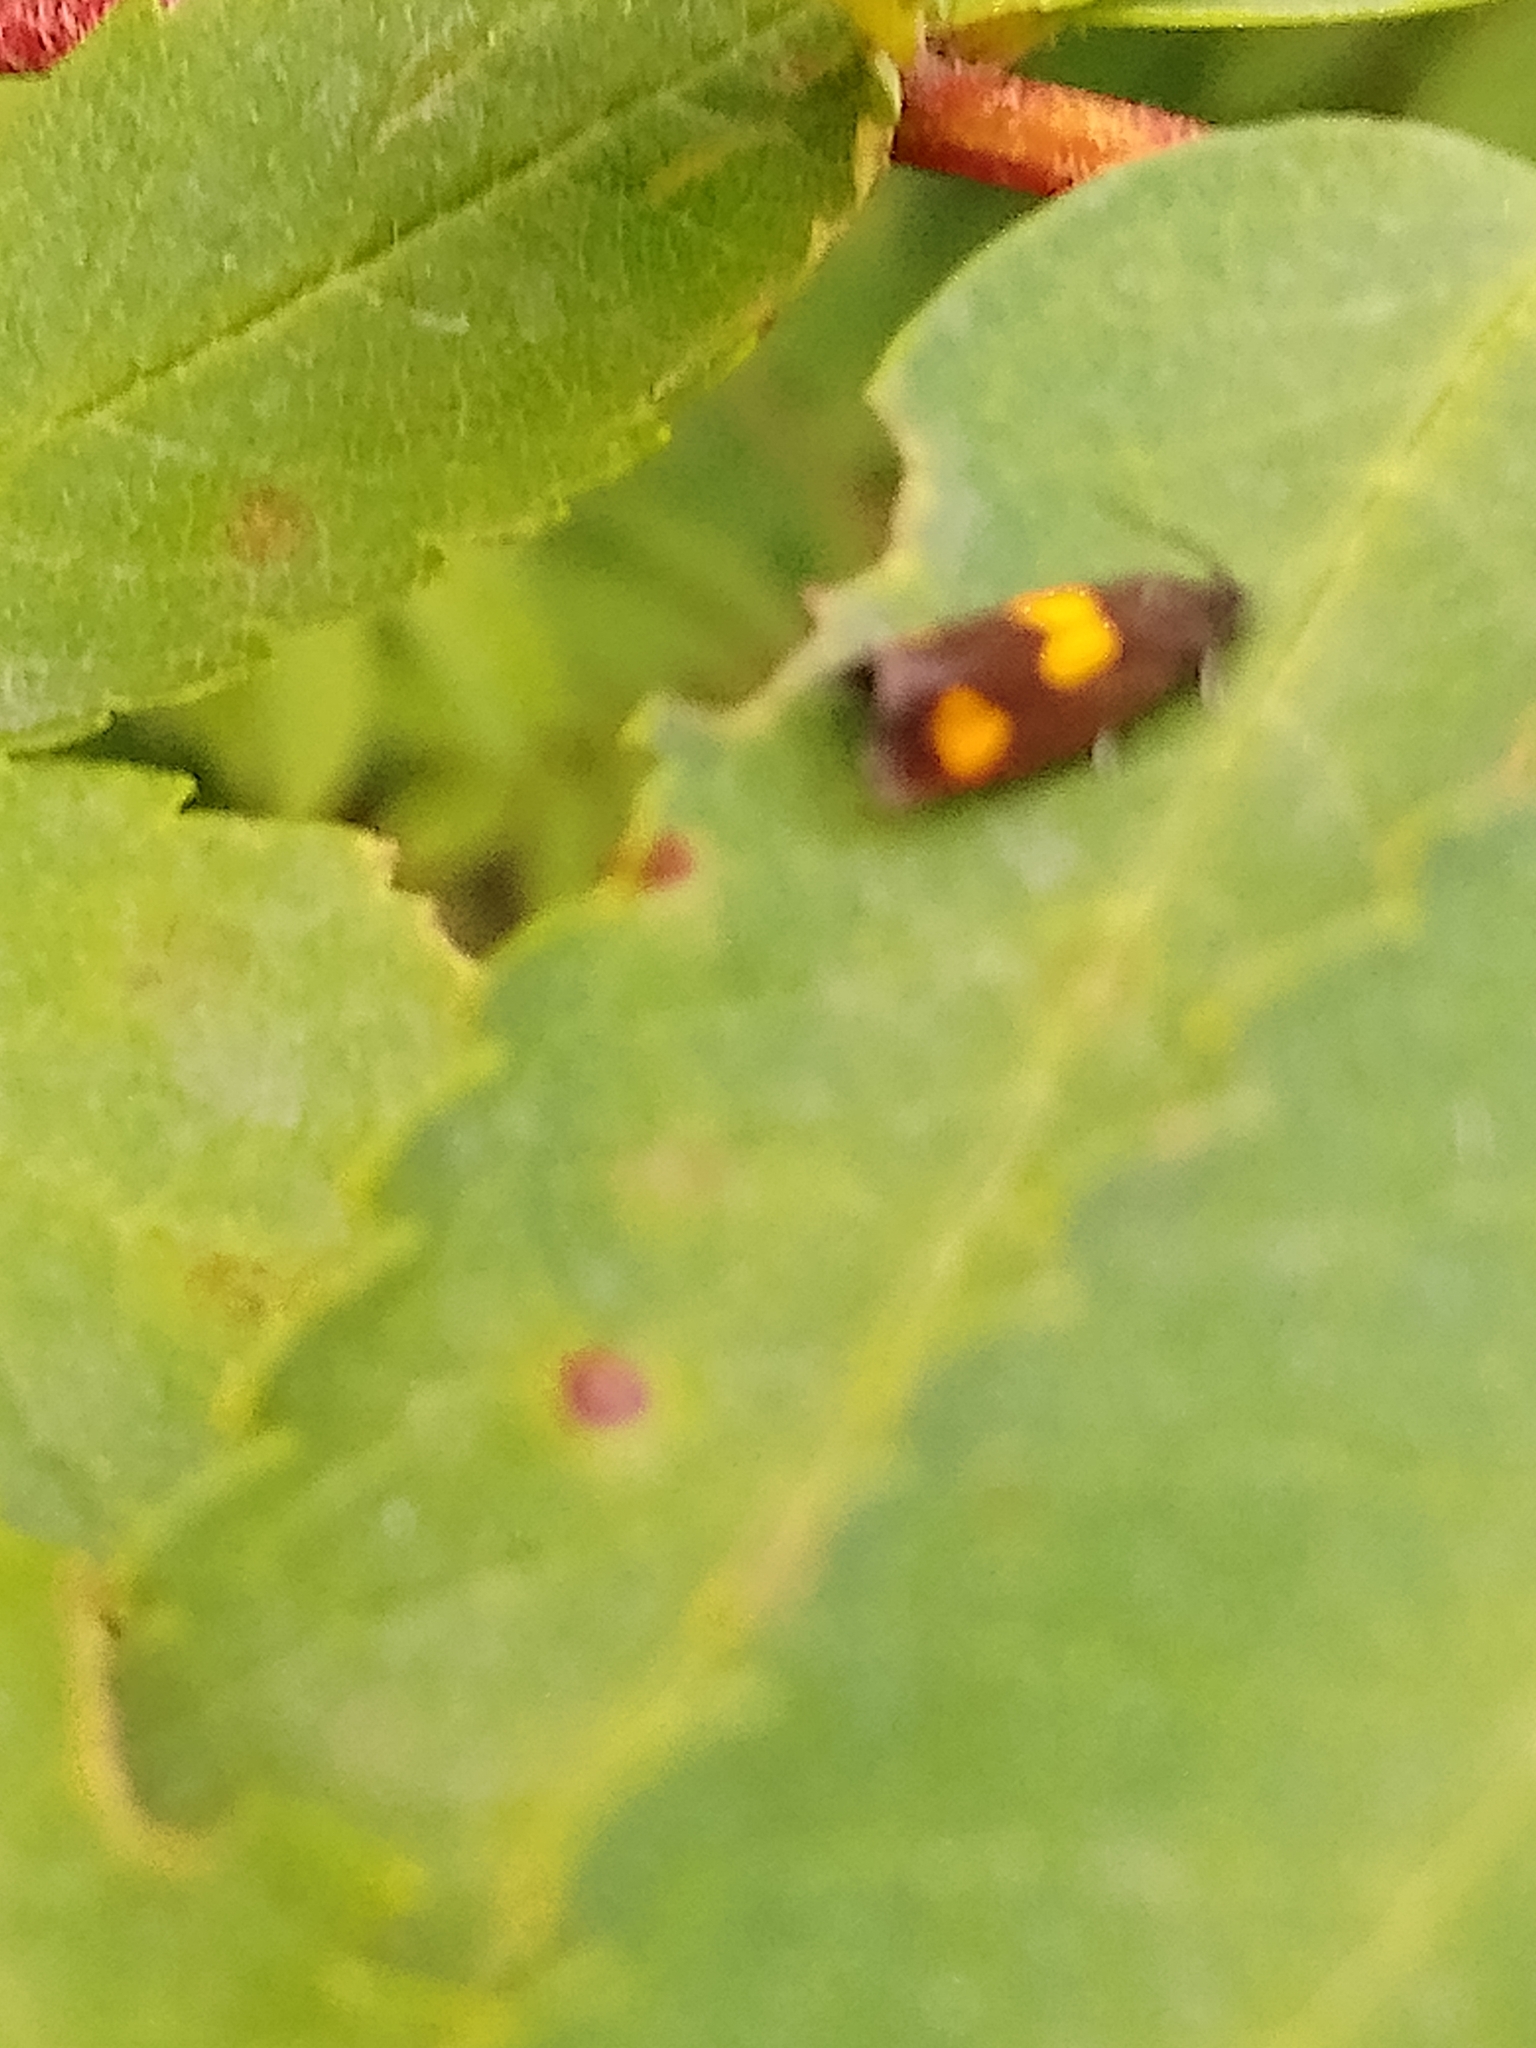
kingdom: Animalia
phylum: Arthropoda
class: Insecta
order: Lepidoptera
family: Tortricidae
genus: Pammene
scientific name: Pammene aurana
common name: Orange-spot piercer
